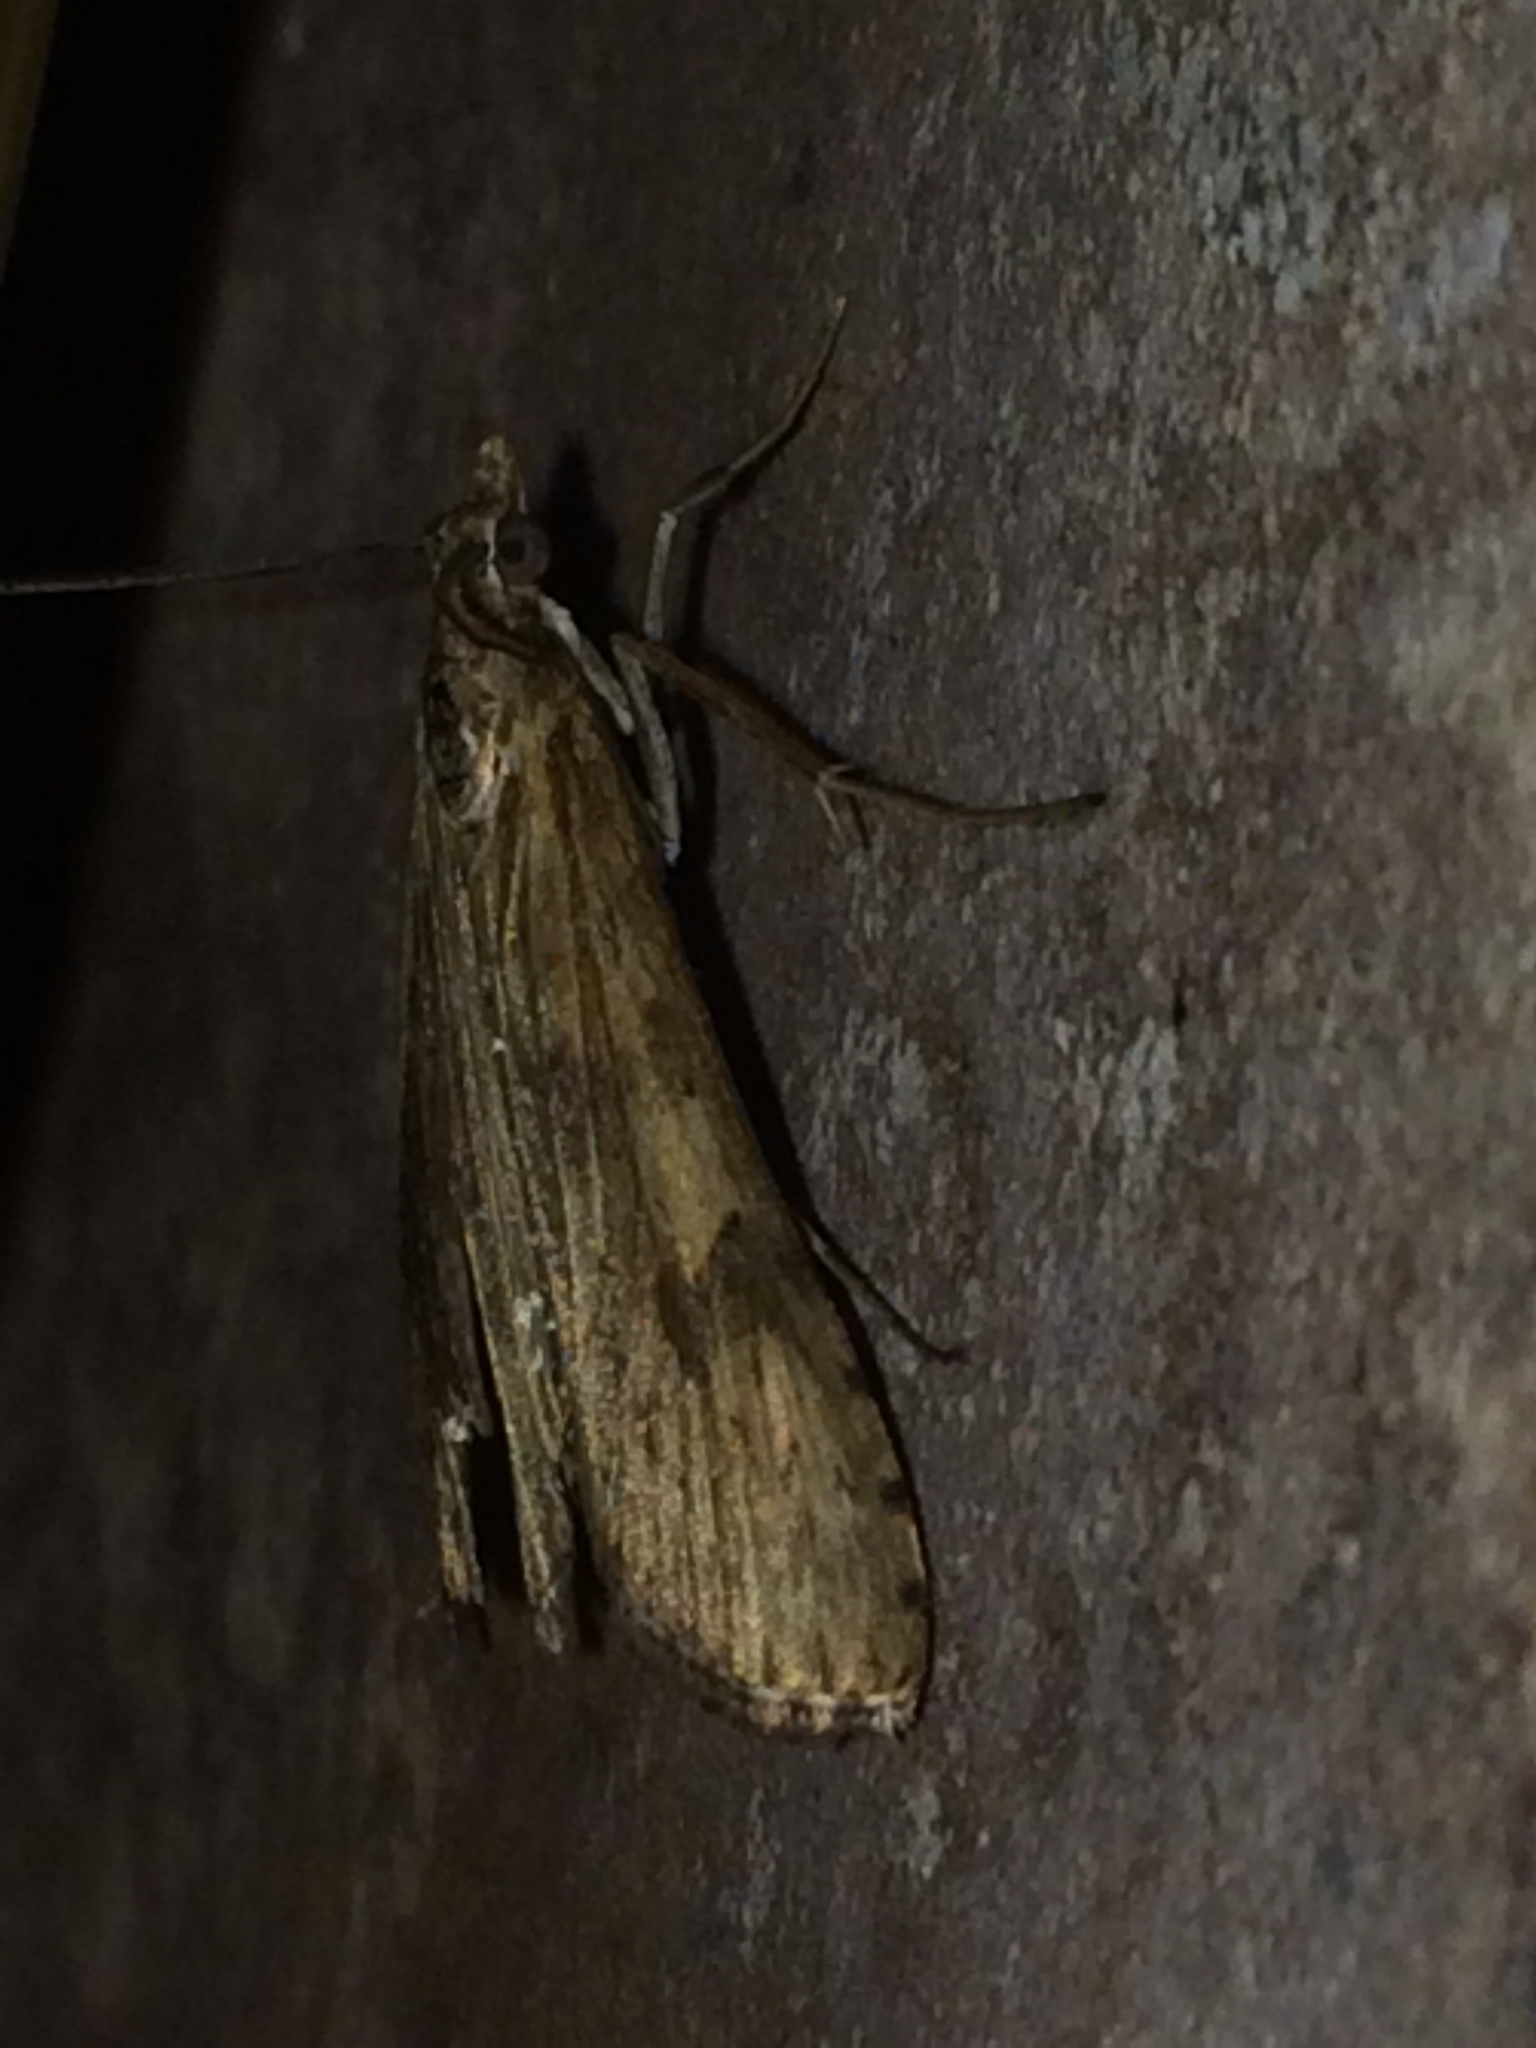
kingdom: Animalia
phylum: Arthropoda
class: Insecta
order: Lepidoptera
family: Crambidae
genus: Nomophila
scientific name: Nomophila nearctica
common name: American rush veneer
